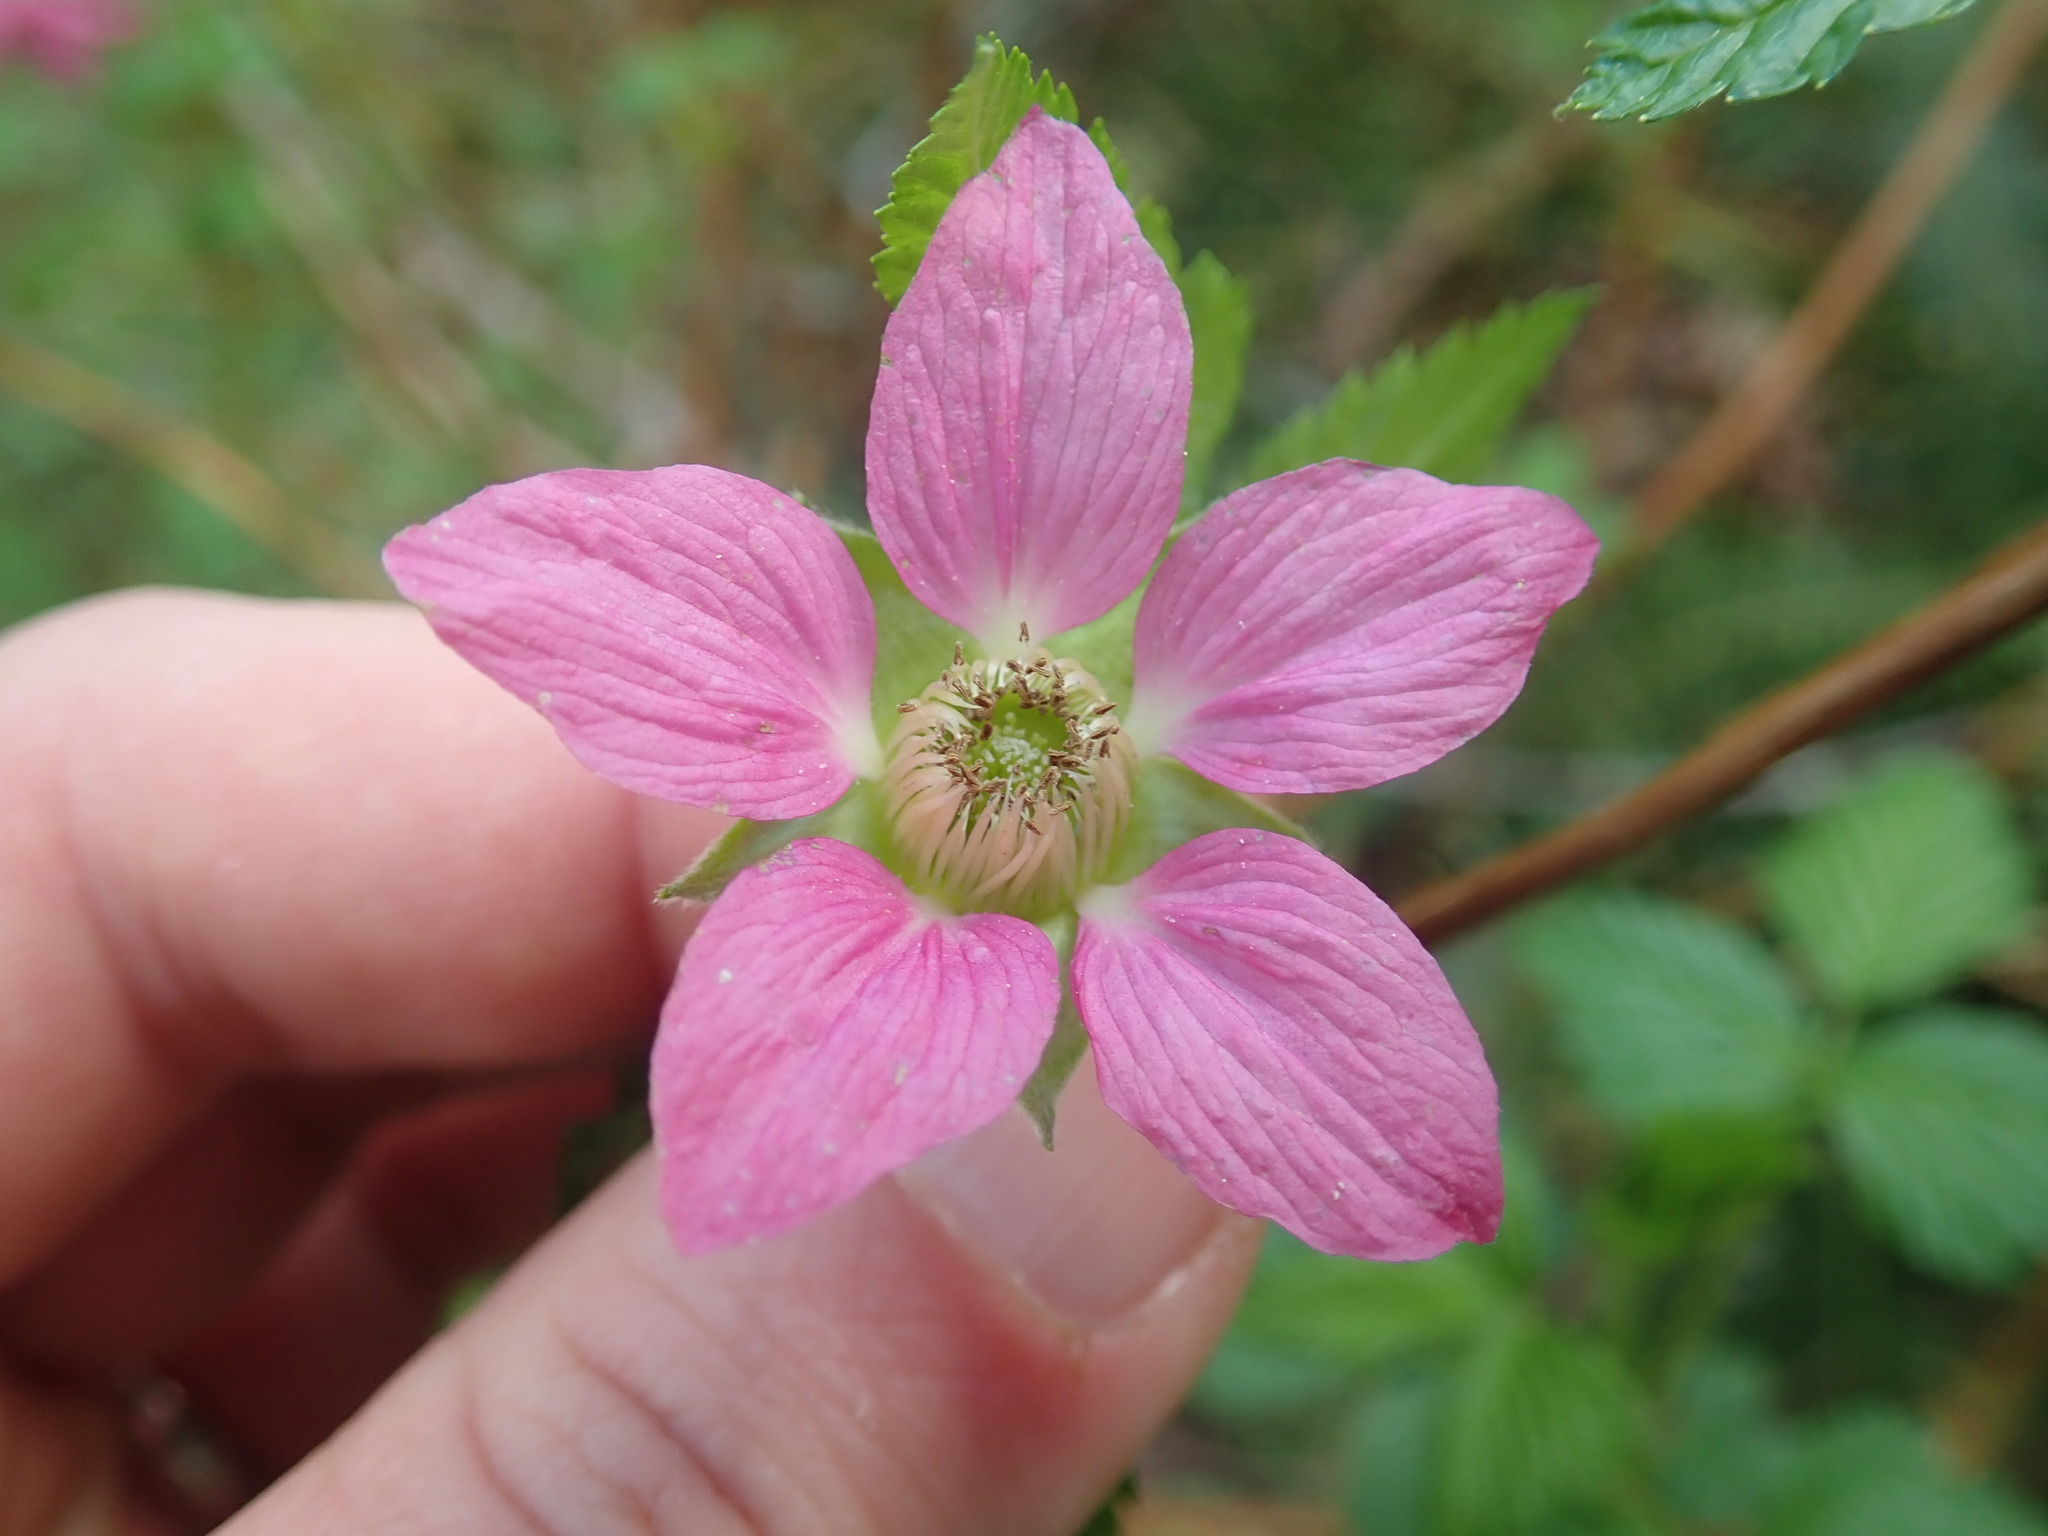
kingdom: Plantae
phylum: Tracheophyta
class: Magnoliopsida
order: Rosales
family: Rosaceae
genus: Rubus
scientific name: Rubus spectabilis
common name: Salmonberry
